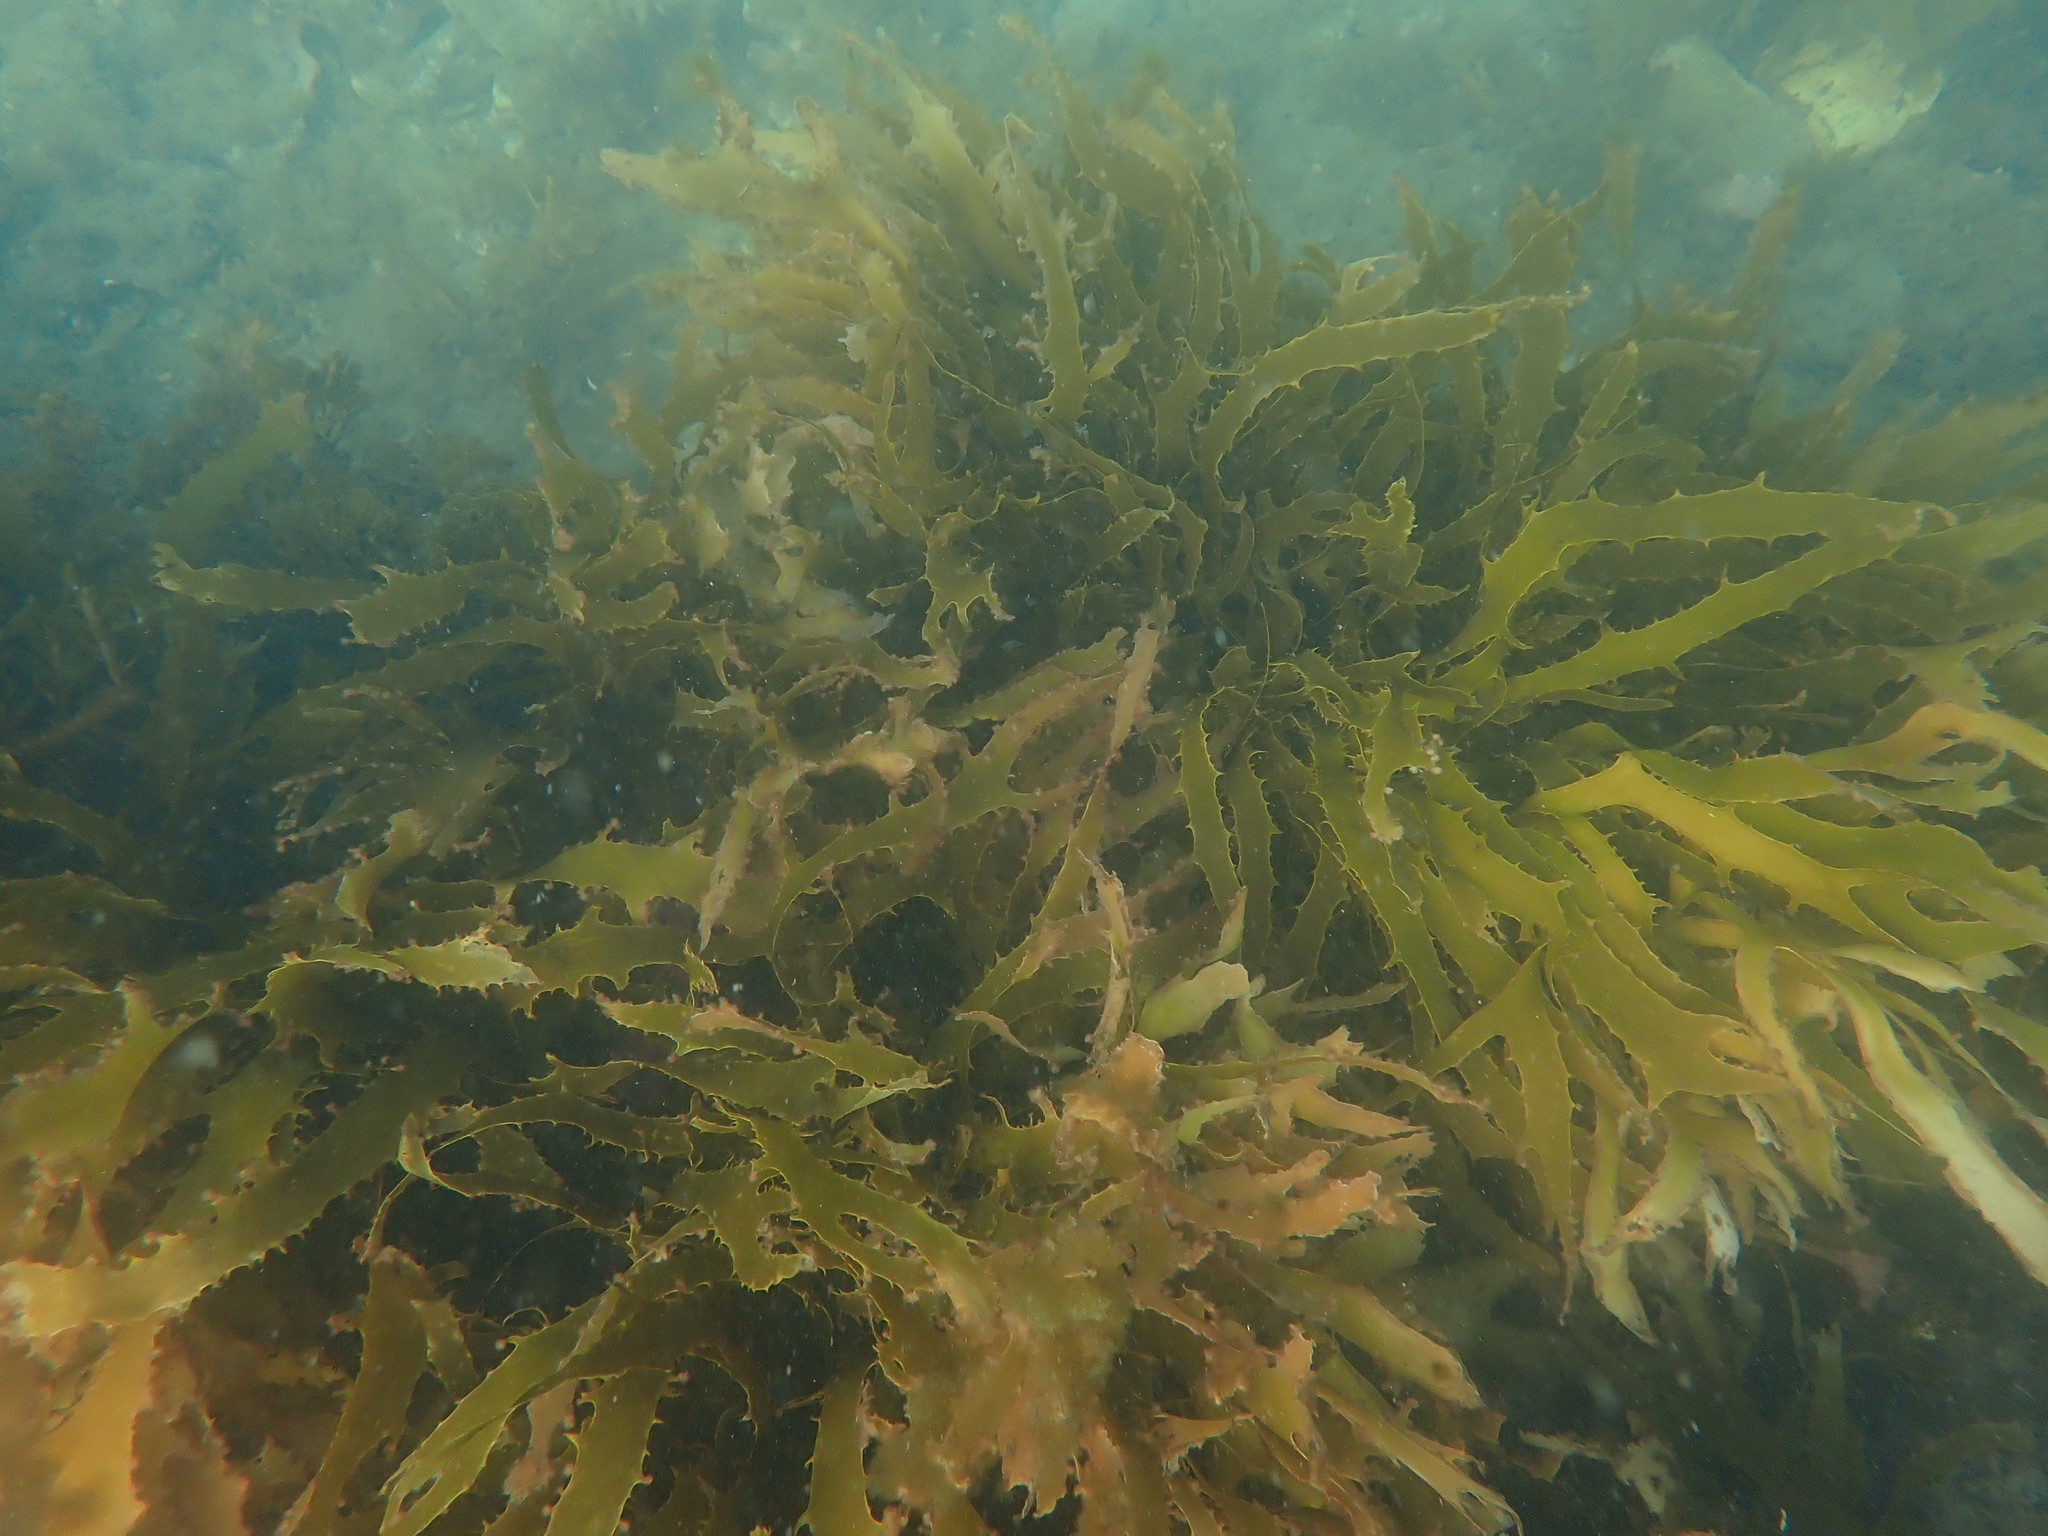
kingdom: Chromista
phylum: Ochrophyta
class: Phaeophyceae
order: Laminariales
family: Lessoniaceae
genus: Ecklonia
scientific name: Ecklonia radiata
